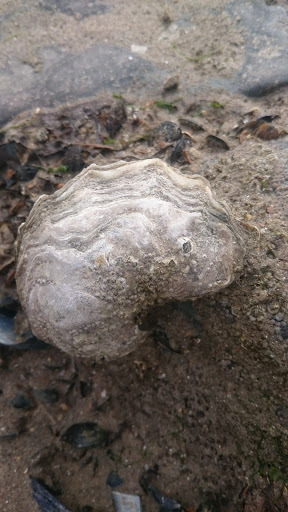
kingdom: Animalia
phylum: Mollusca
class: Bivalvia
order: Ostreida
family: Ostreidae
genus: Magallana
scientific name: Magallana gigas
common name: Pacific oyster
